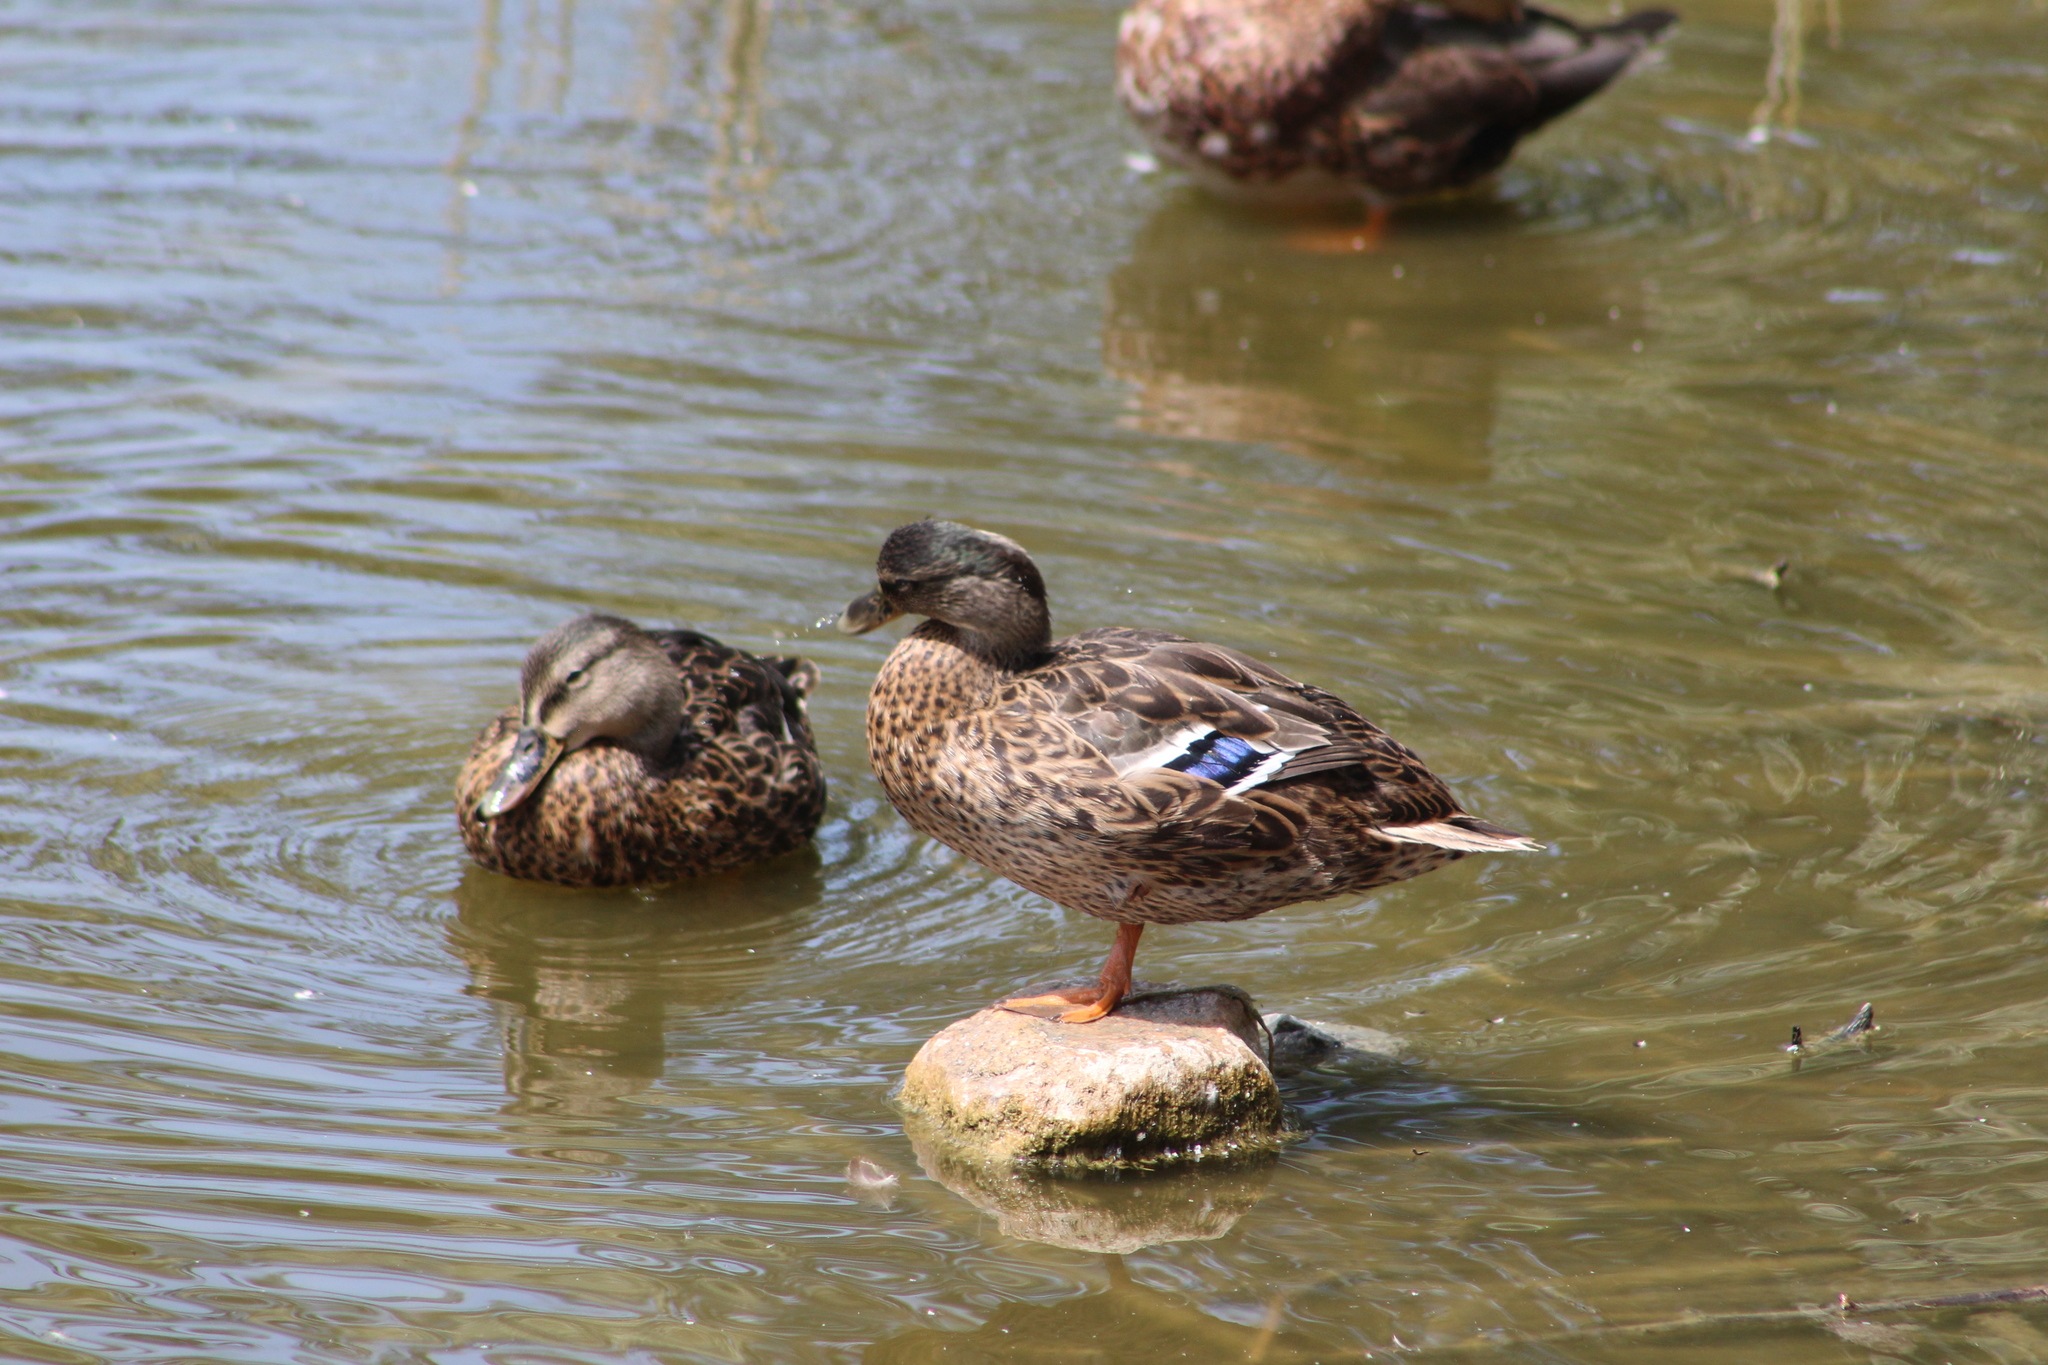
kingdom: Animalia
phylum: Chordata
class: Aves
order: Anseriformes
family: Anatidae
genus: Anas
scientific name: Anas platyrhynchos
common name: Mallard
